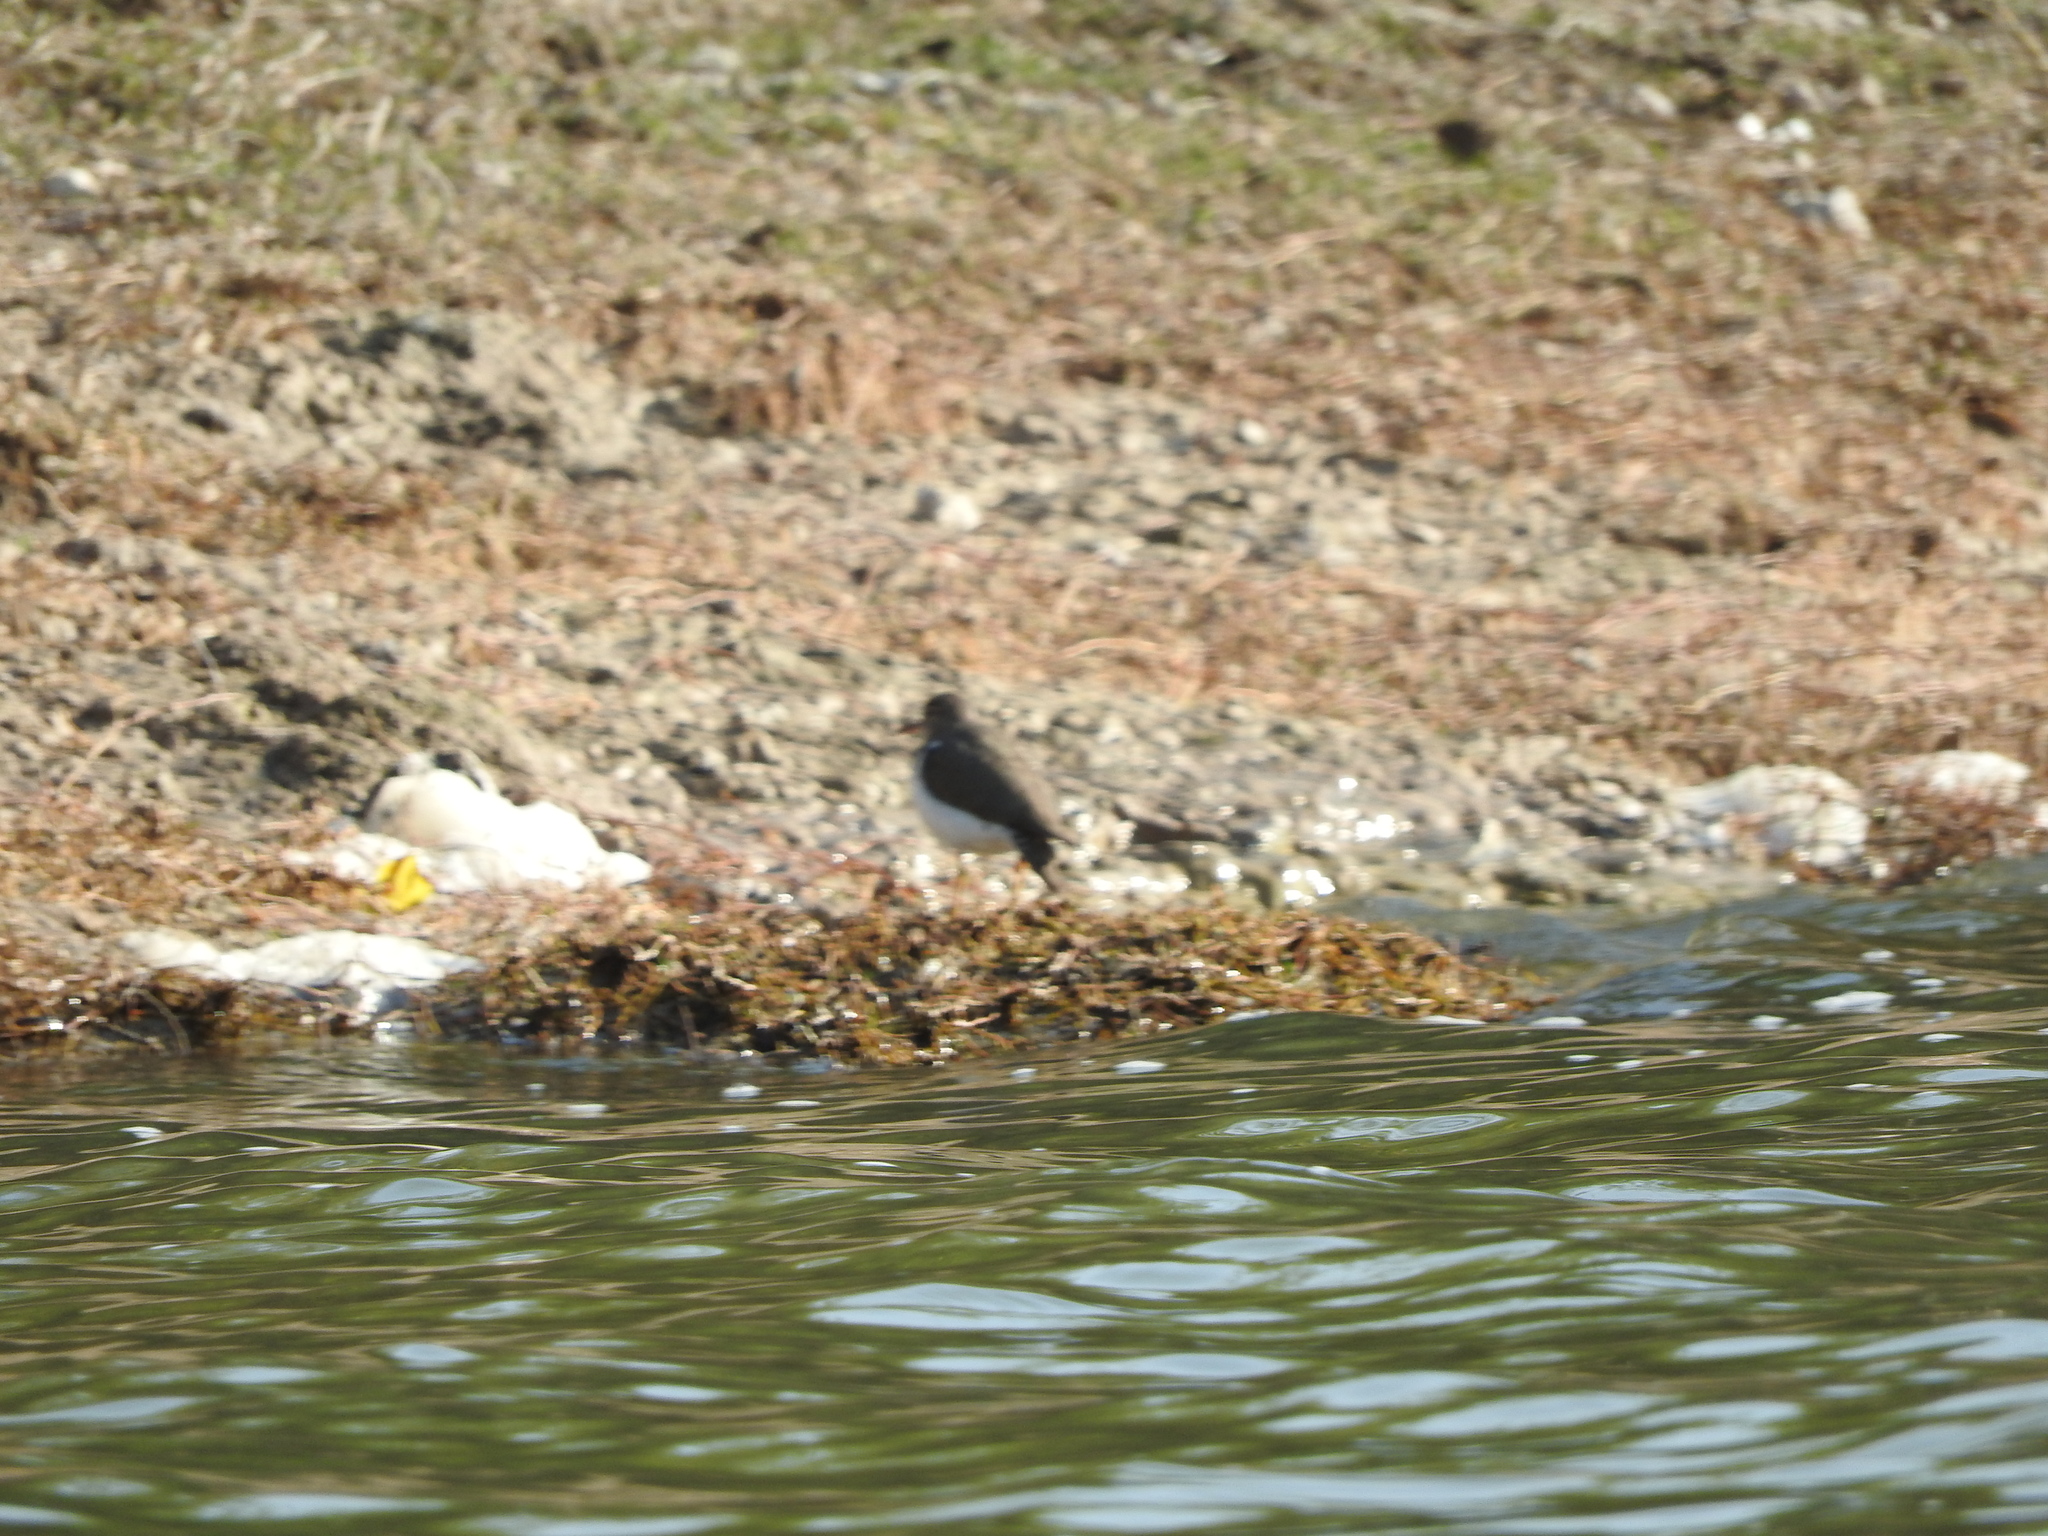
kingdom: Animalia
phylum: Chordata
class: Aves
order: Charadriiformes
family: Scolopacidae
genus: Actitis
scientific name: Actitis macularius
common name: Spotted sandpiper
